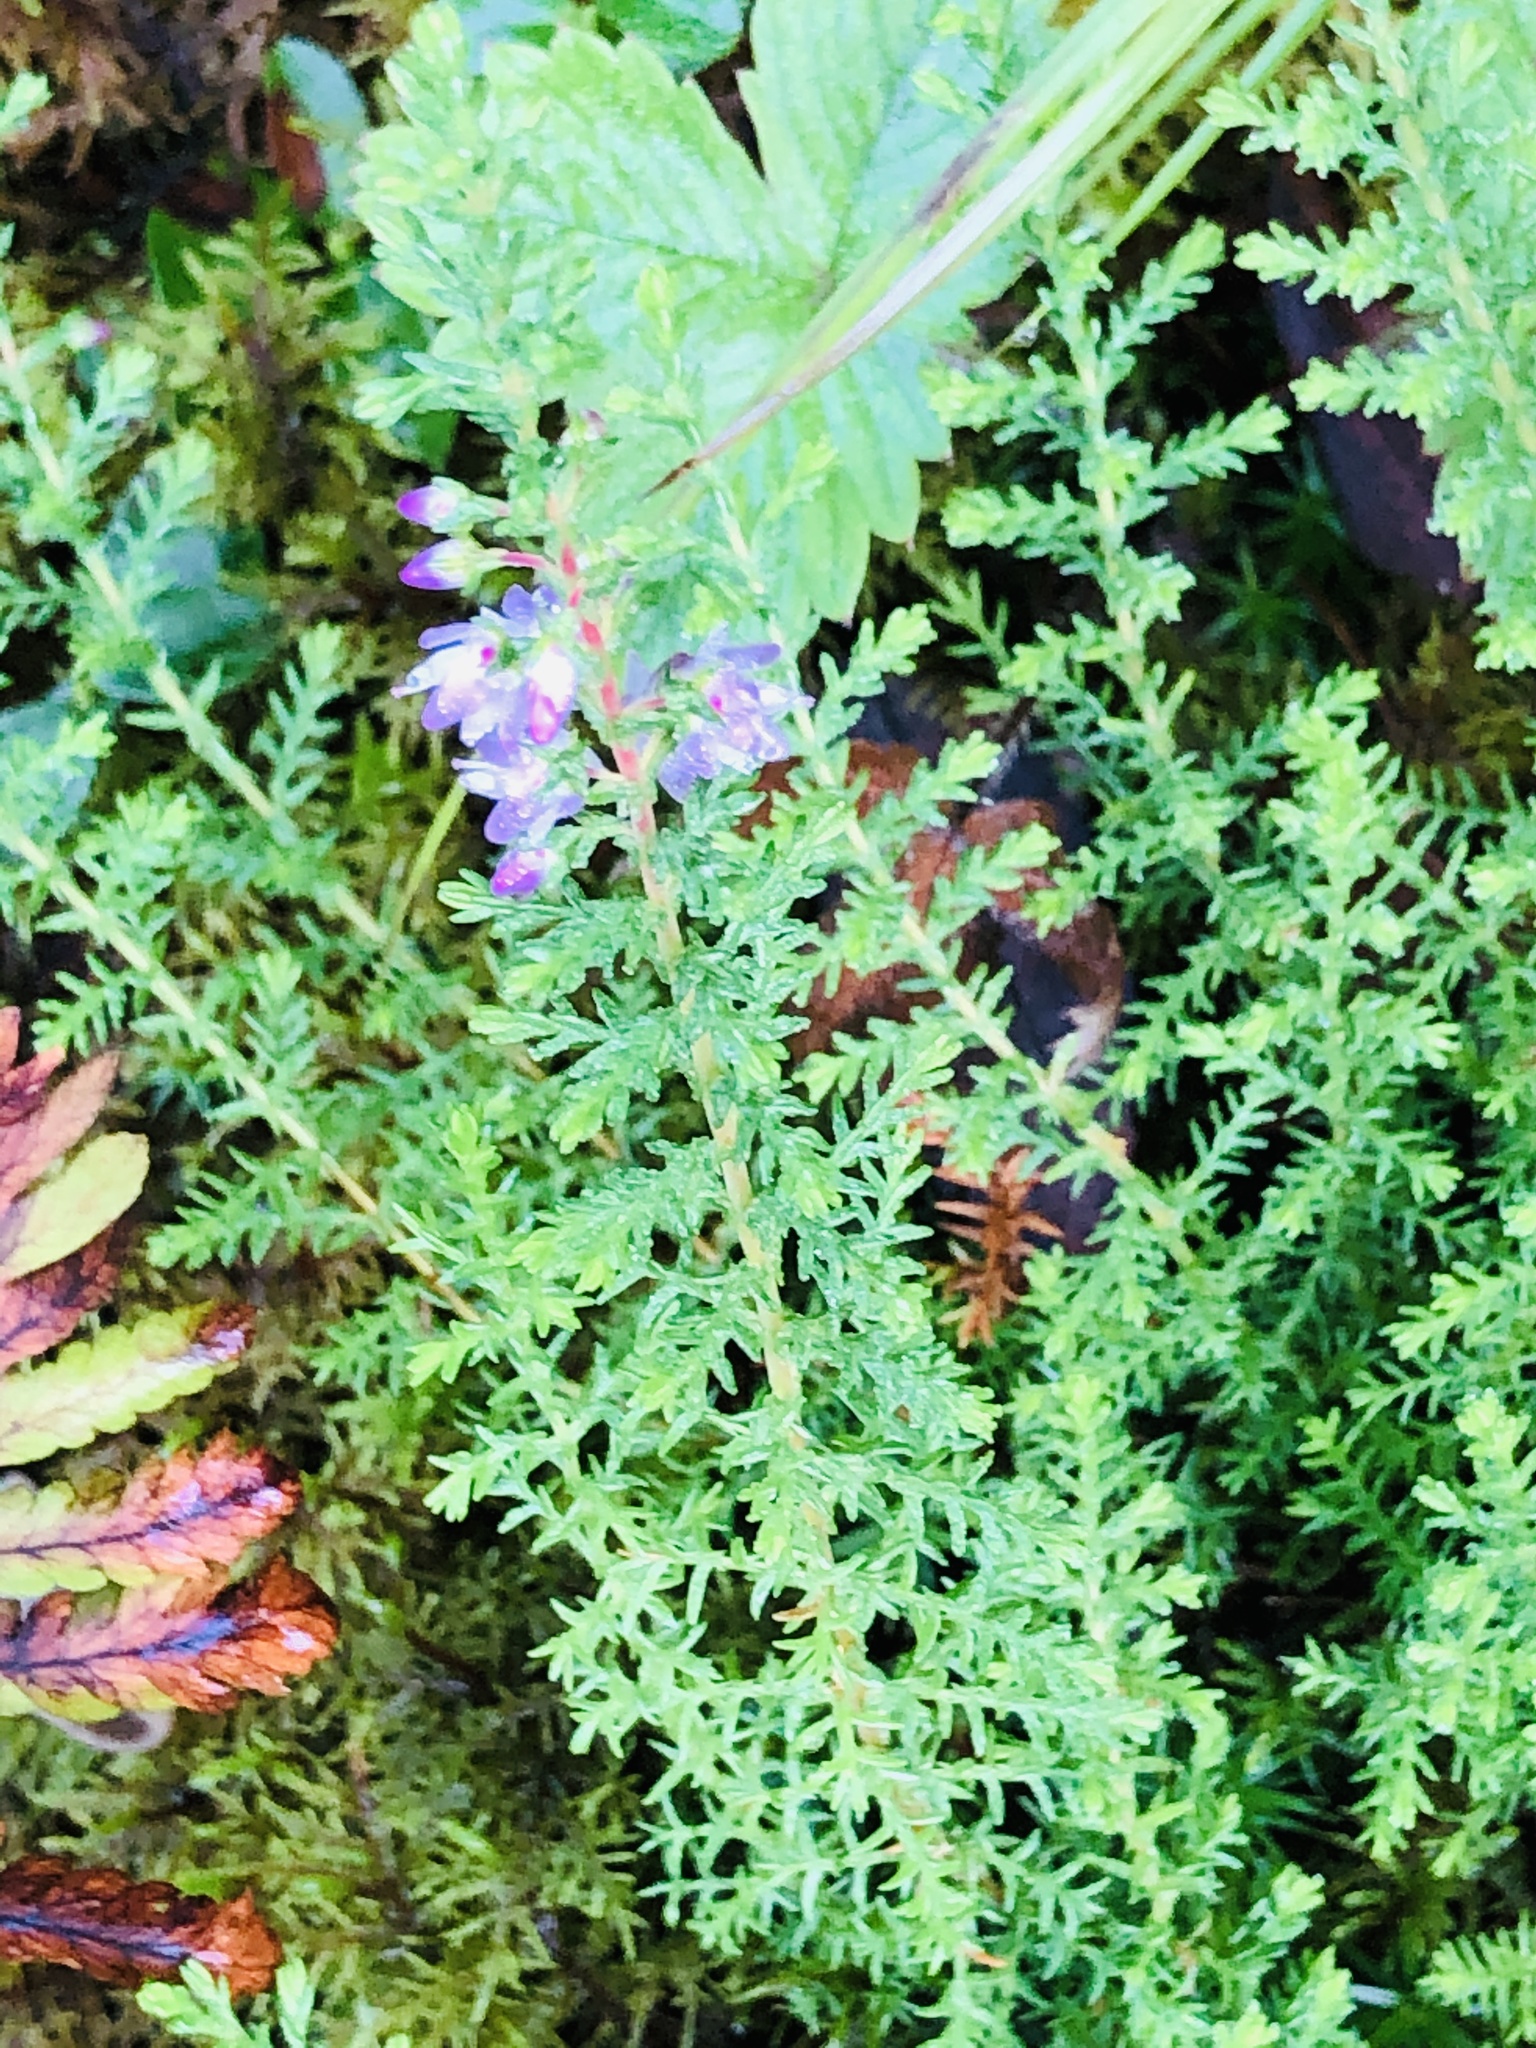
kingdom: Plantae
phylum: Tracheophyta
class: Magnoliopsida
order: Ericales
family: Ericaceae
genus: Calluna
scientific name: Calluna vulgaris
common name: Heather
